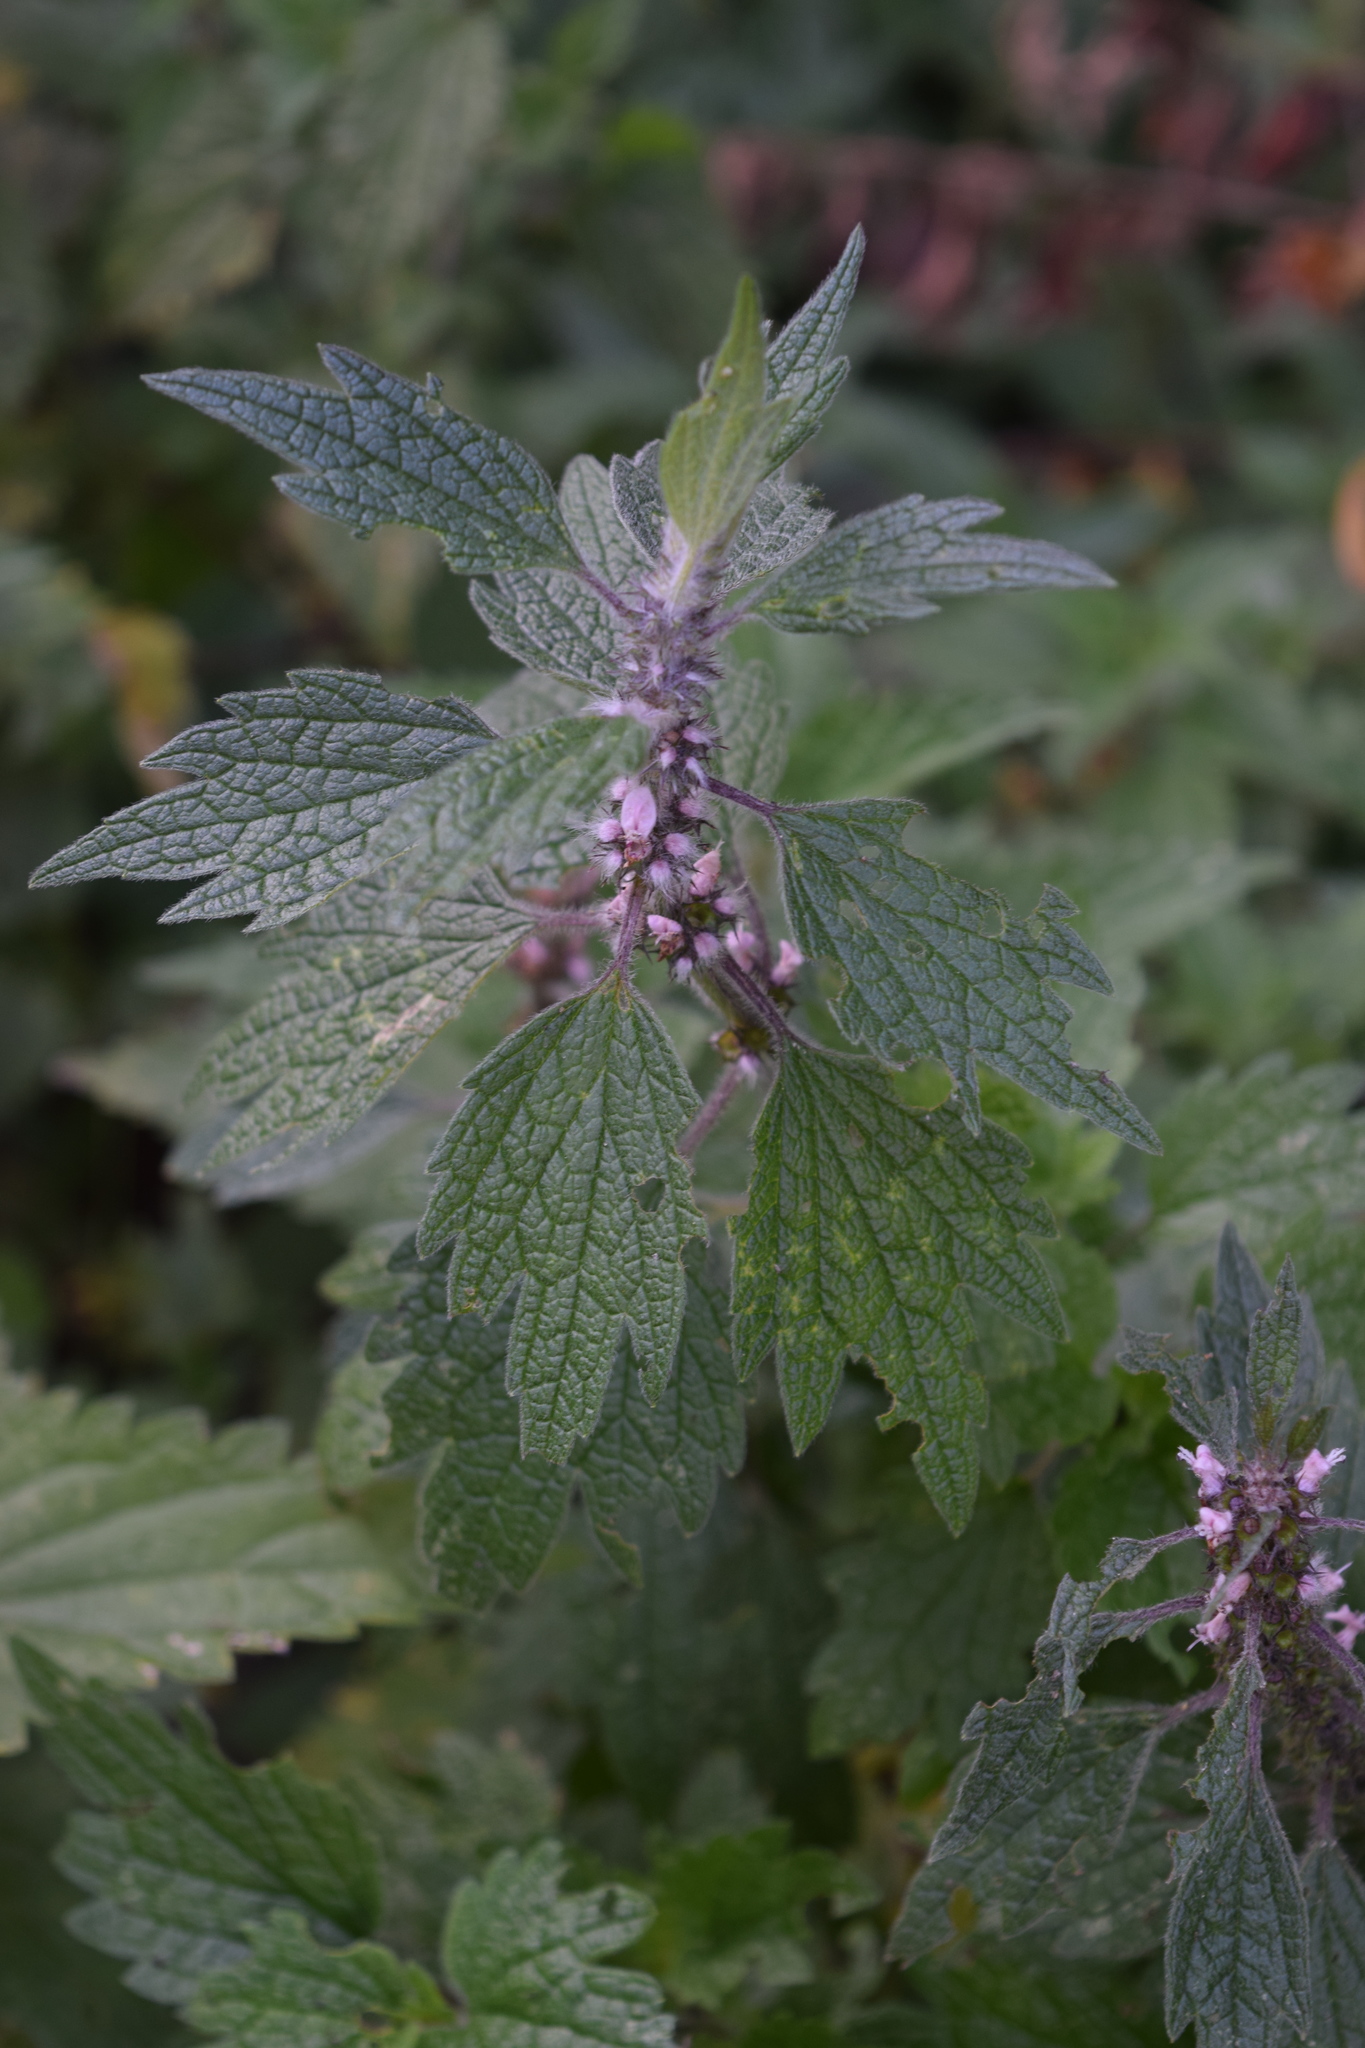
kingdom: Plantae
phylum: Tracheophyta
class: Magnoliopsida
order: Lamiales
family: Lamiaceae
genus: Leonurus
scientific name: Leonurus quinquelobatus
